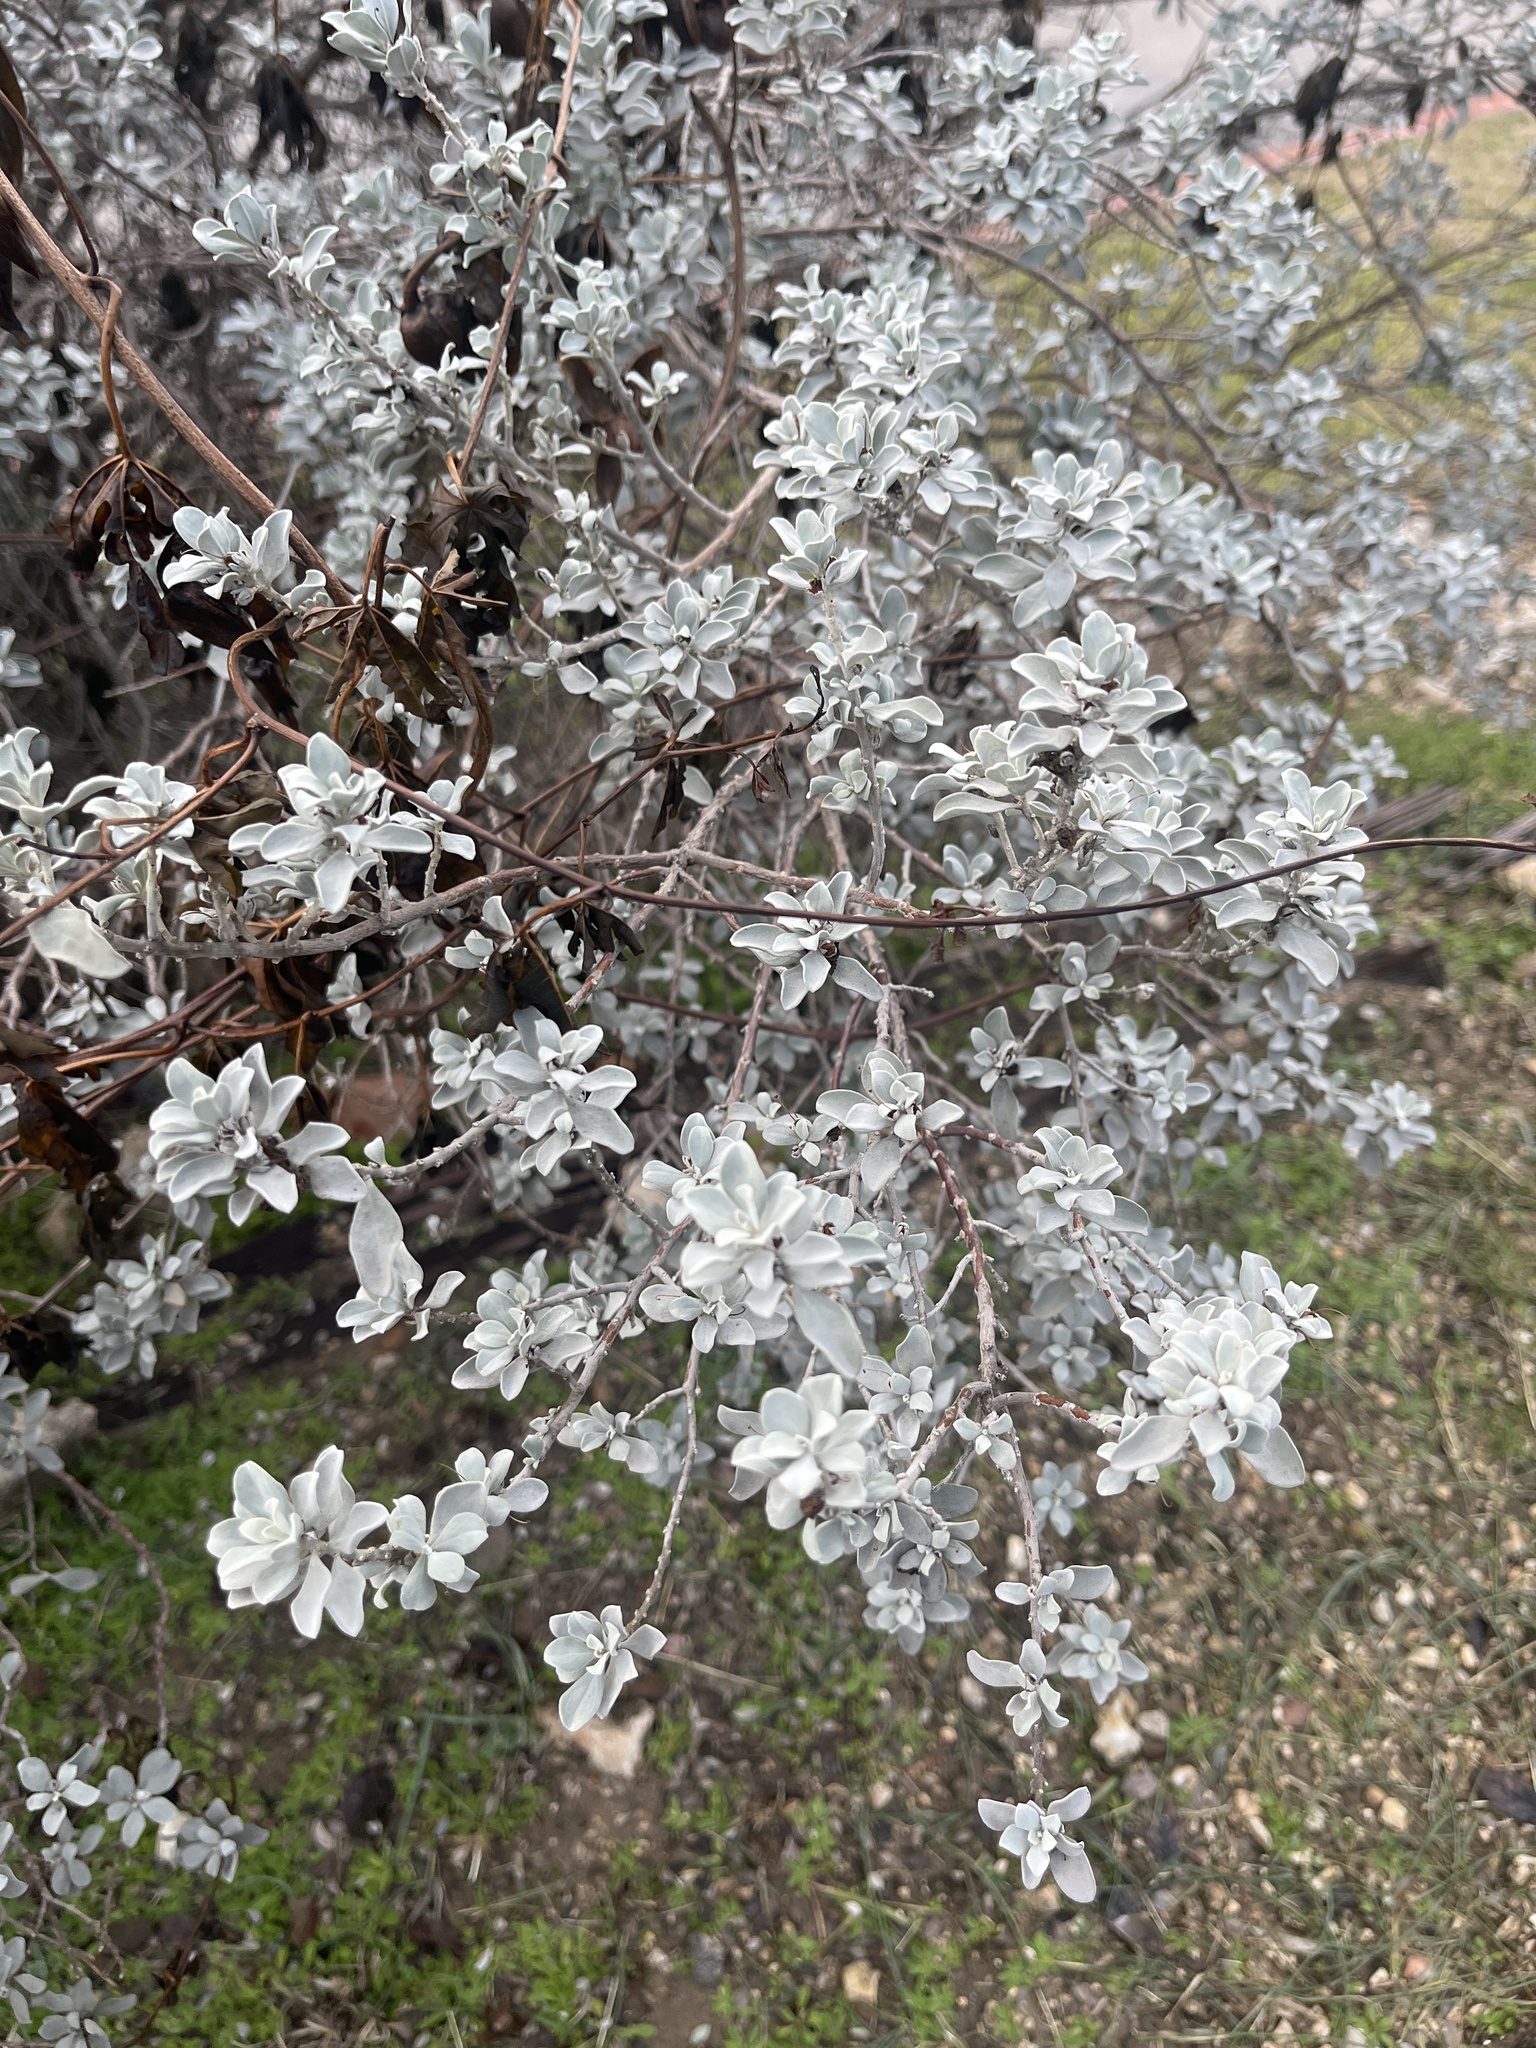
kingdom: Plantae
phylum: Tracheophyta
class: Magnoliopsida
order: Lamiales
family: Scrophulariaceae
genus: Leucophyllum
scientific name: Leucophyllum frutescens
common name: Texas silverleaf
